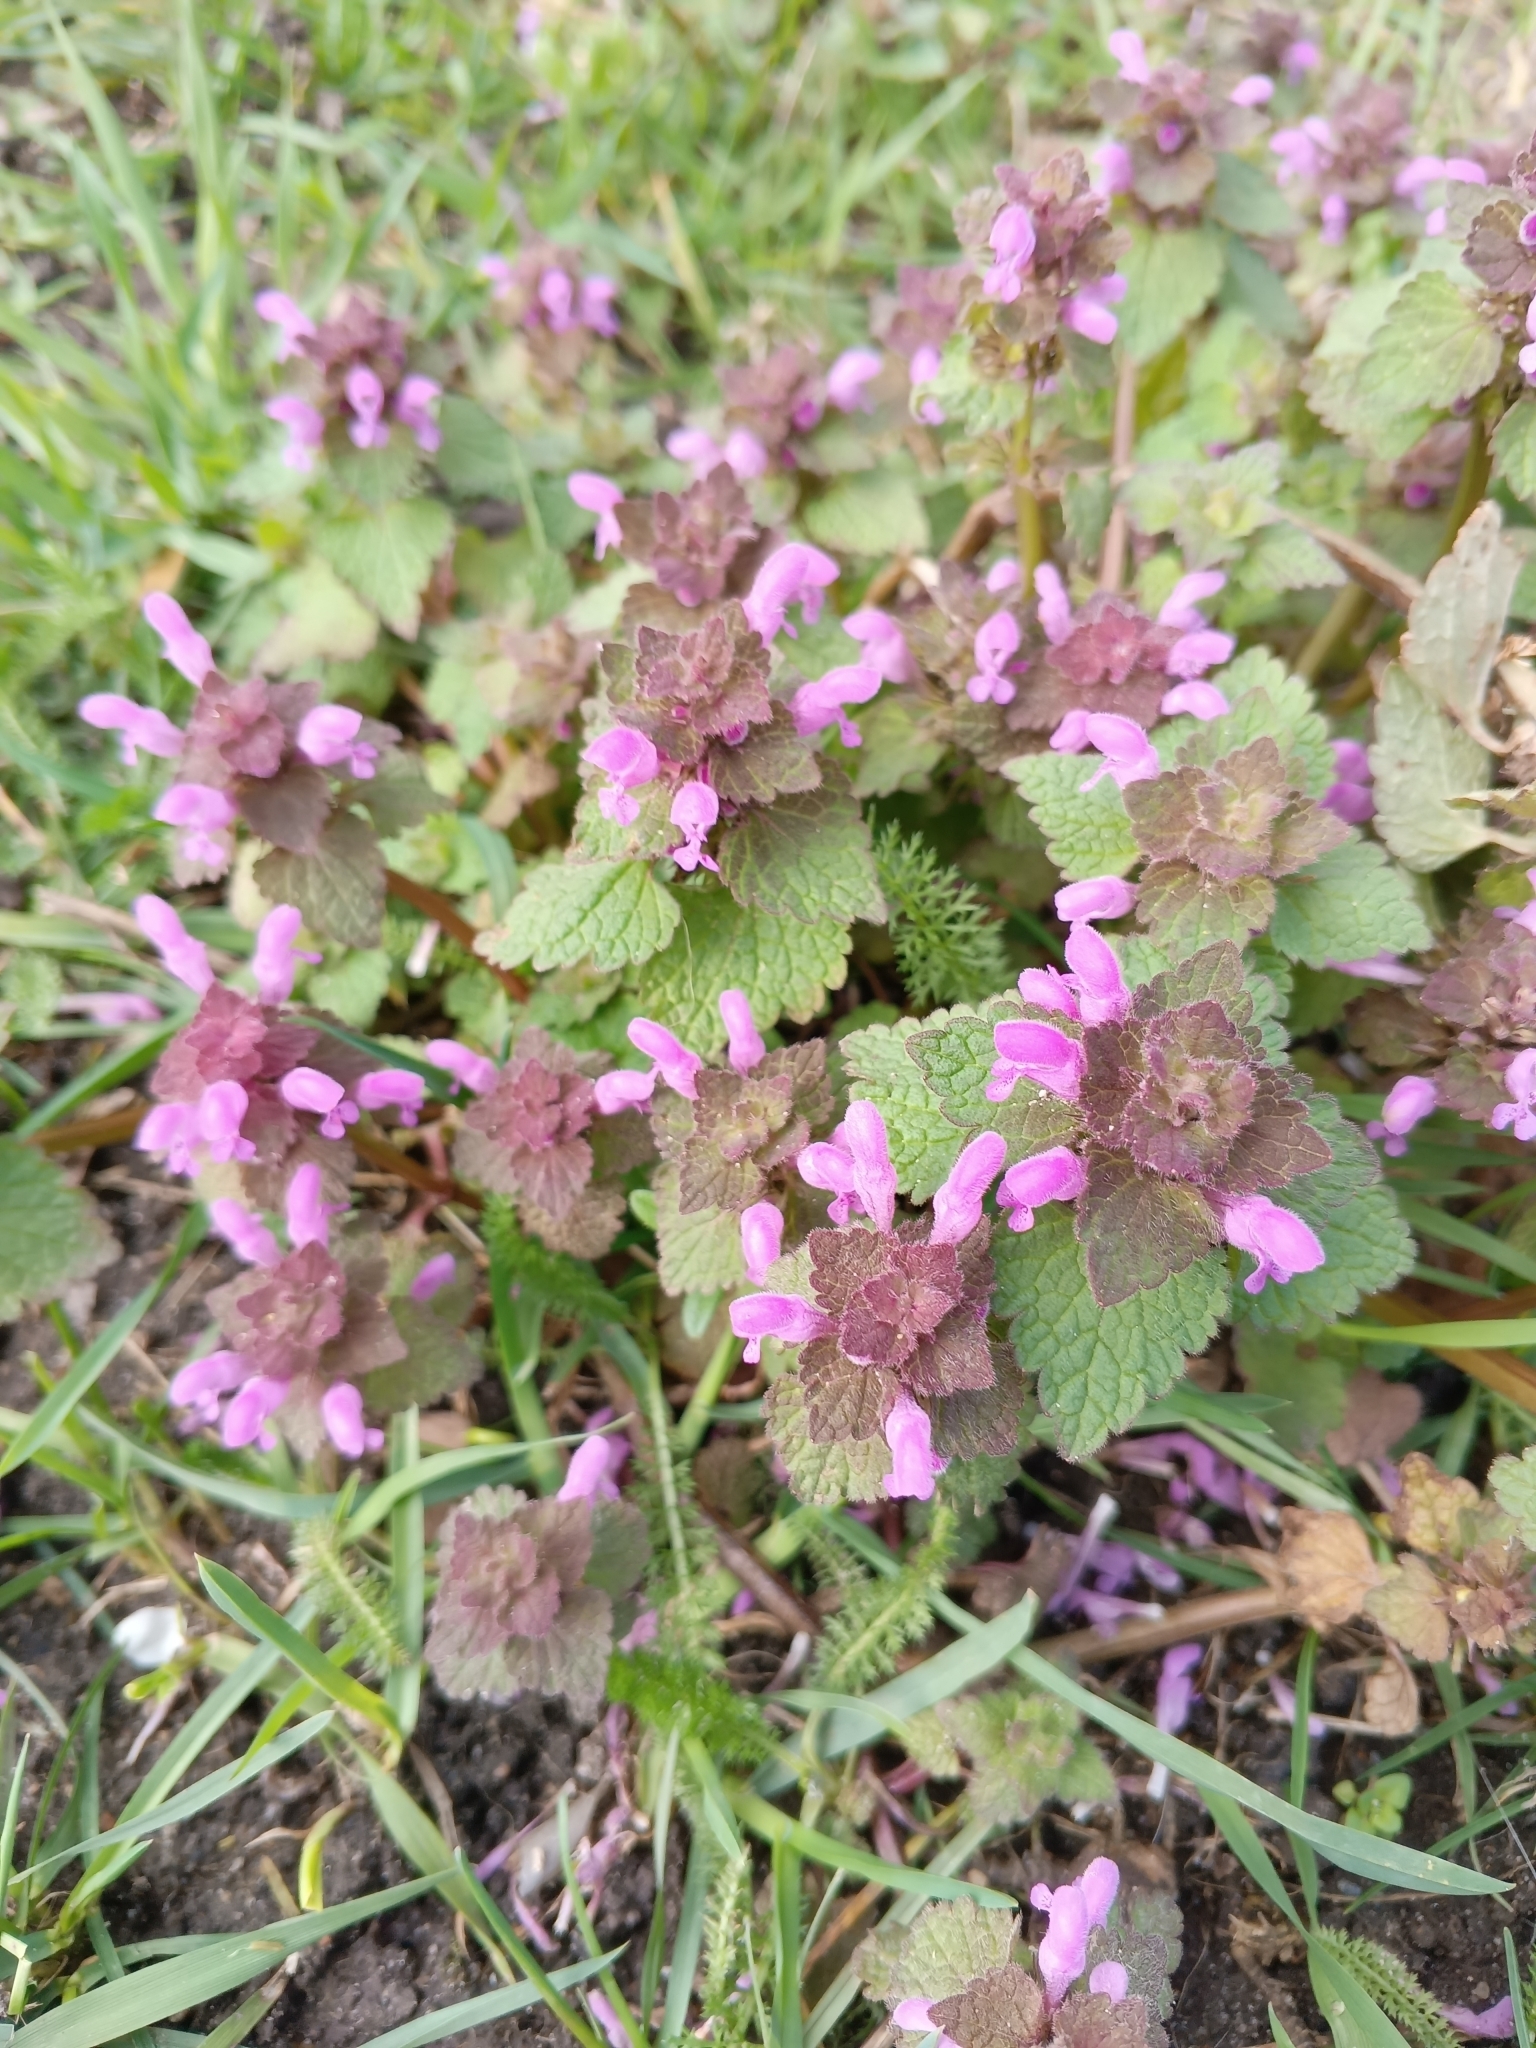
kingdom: Plantae
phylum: Tracheophyta
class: Magnoliopsida
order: Lamiales
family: Lamiaceae
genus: Lamium
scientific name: Lamium purpureum
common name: Red dead-nettle
